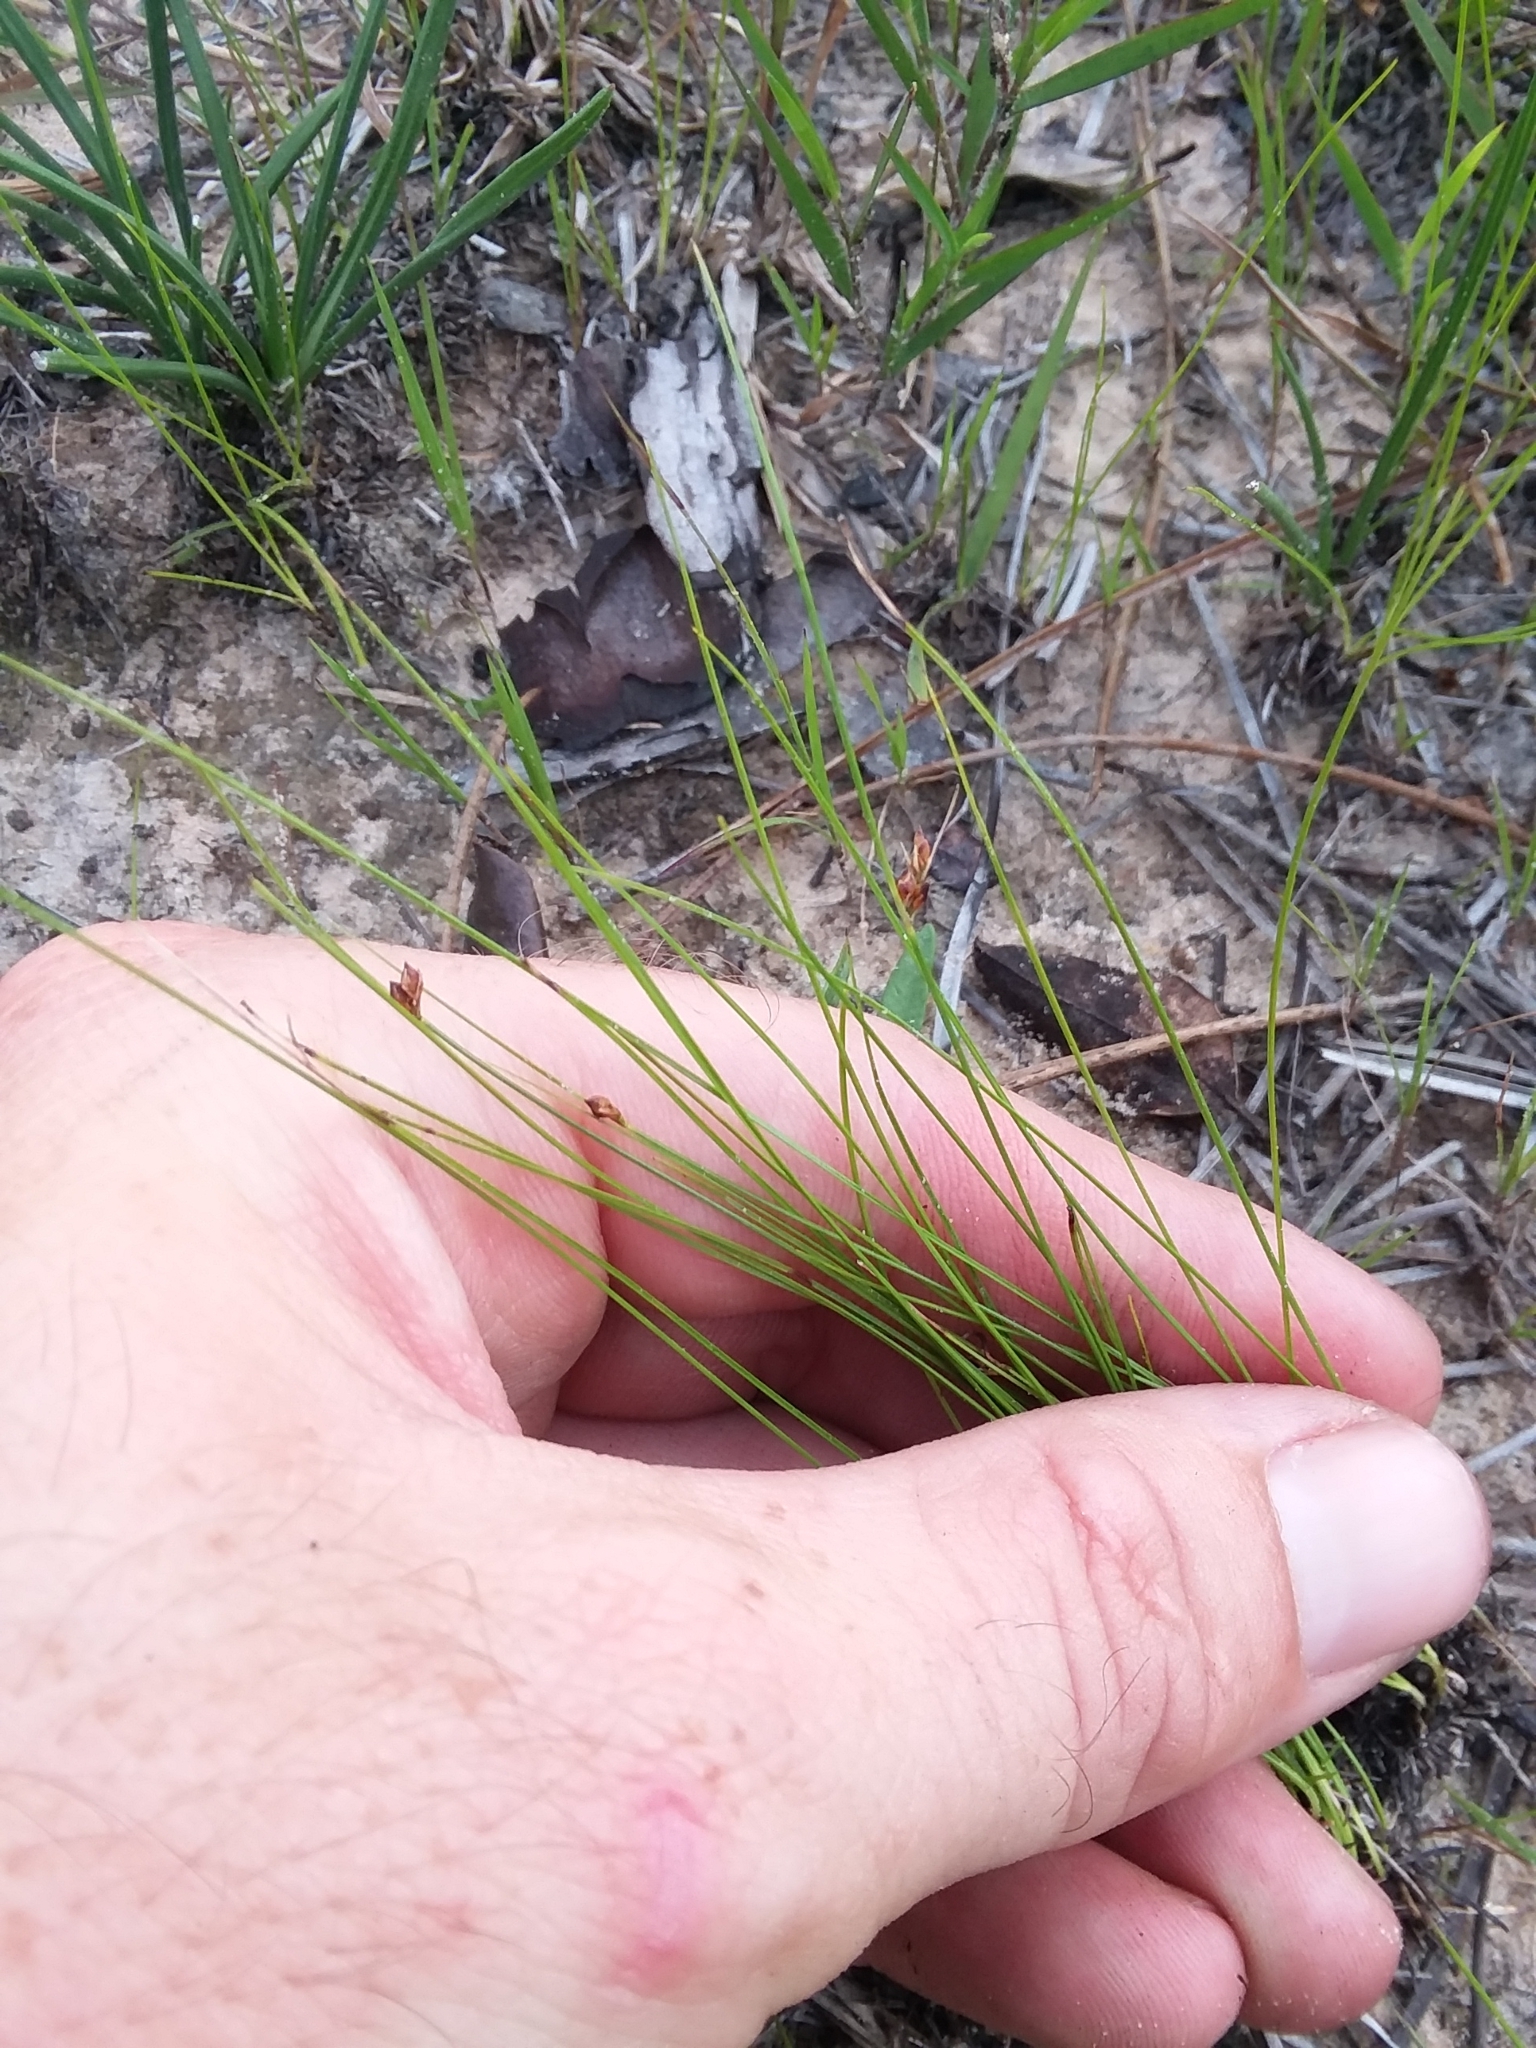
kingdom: Plantae
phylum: Tracheophyta
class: Liliopsida
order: Poales
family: Cyperaceae
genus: Rhynchospora
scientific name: Rhynchospora plumosa
